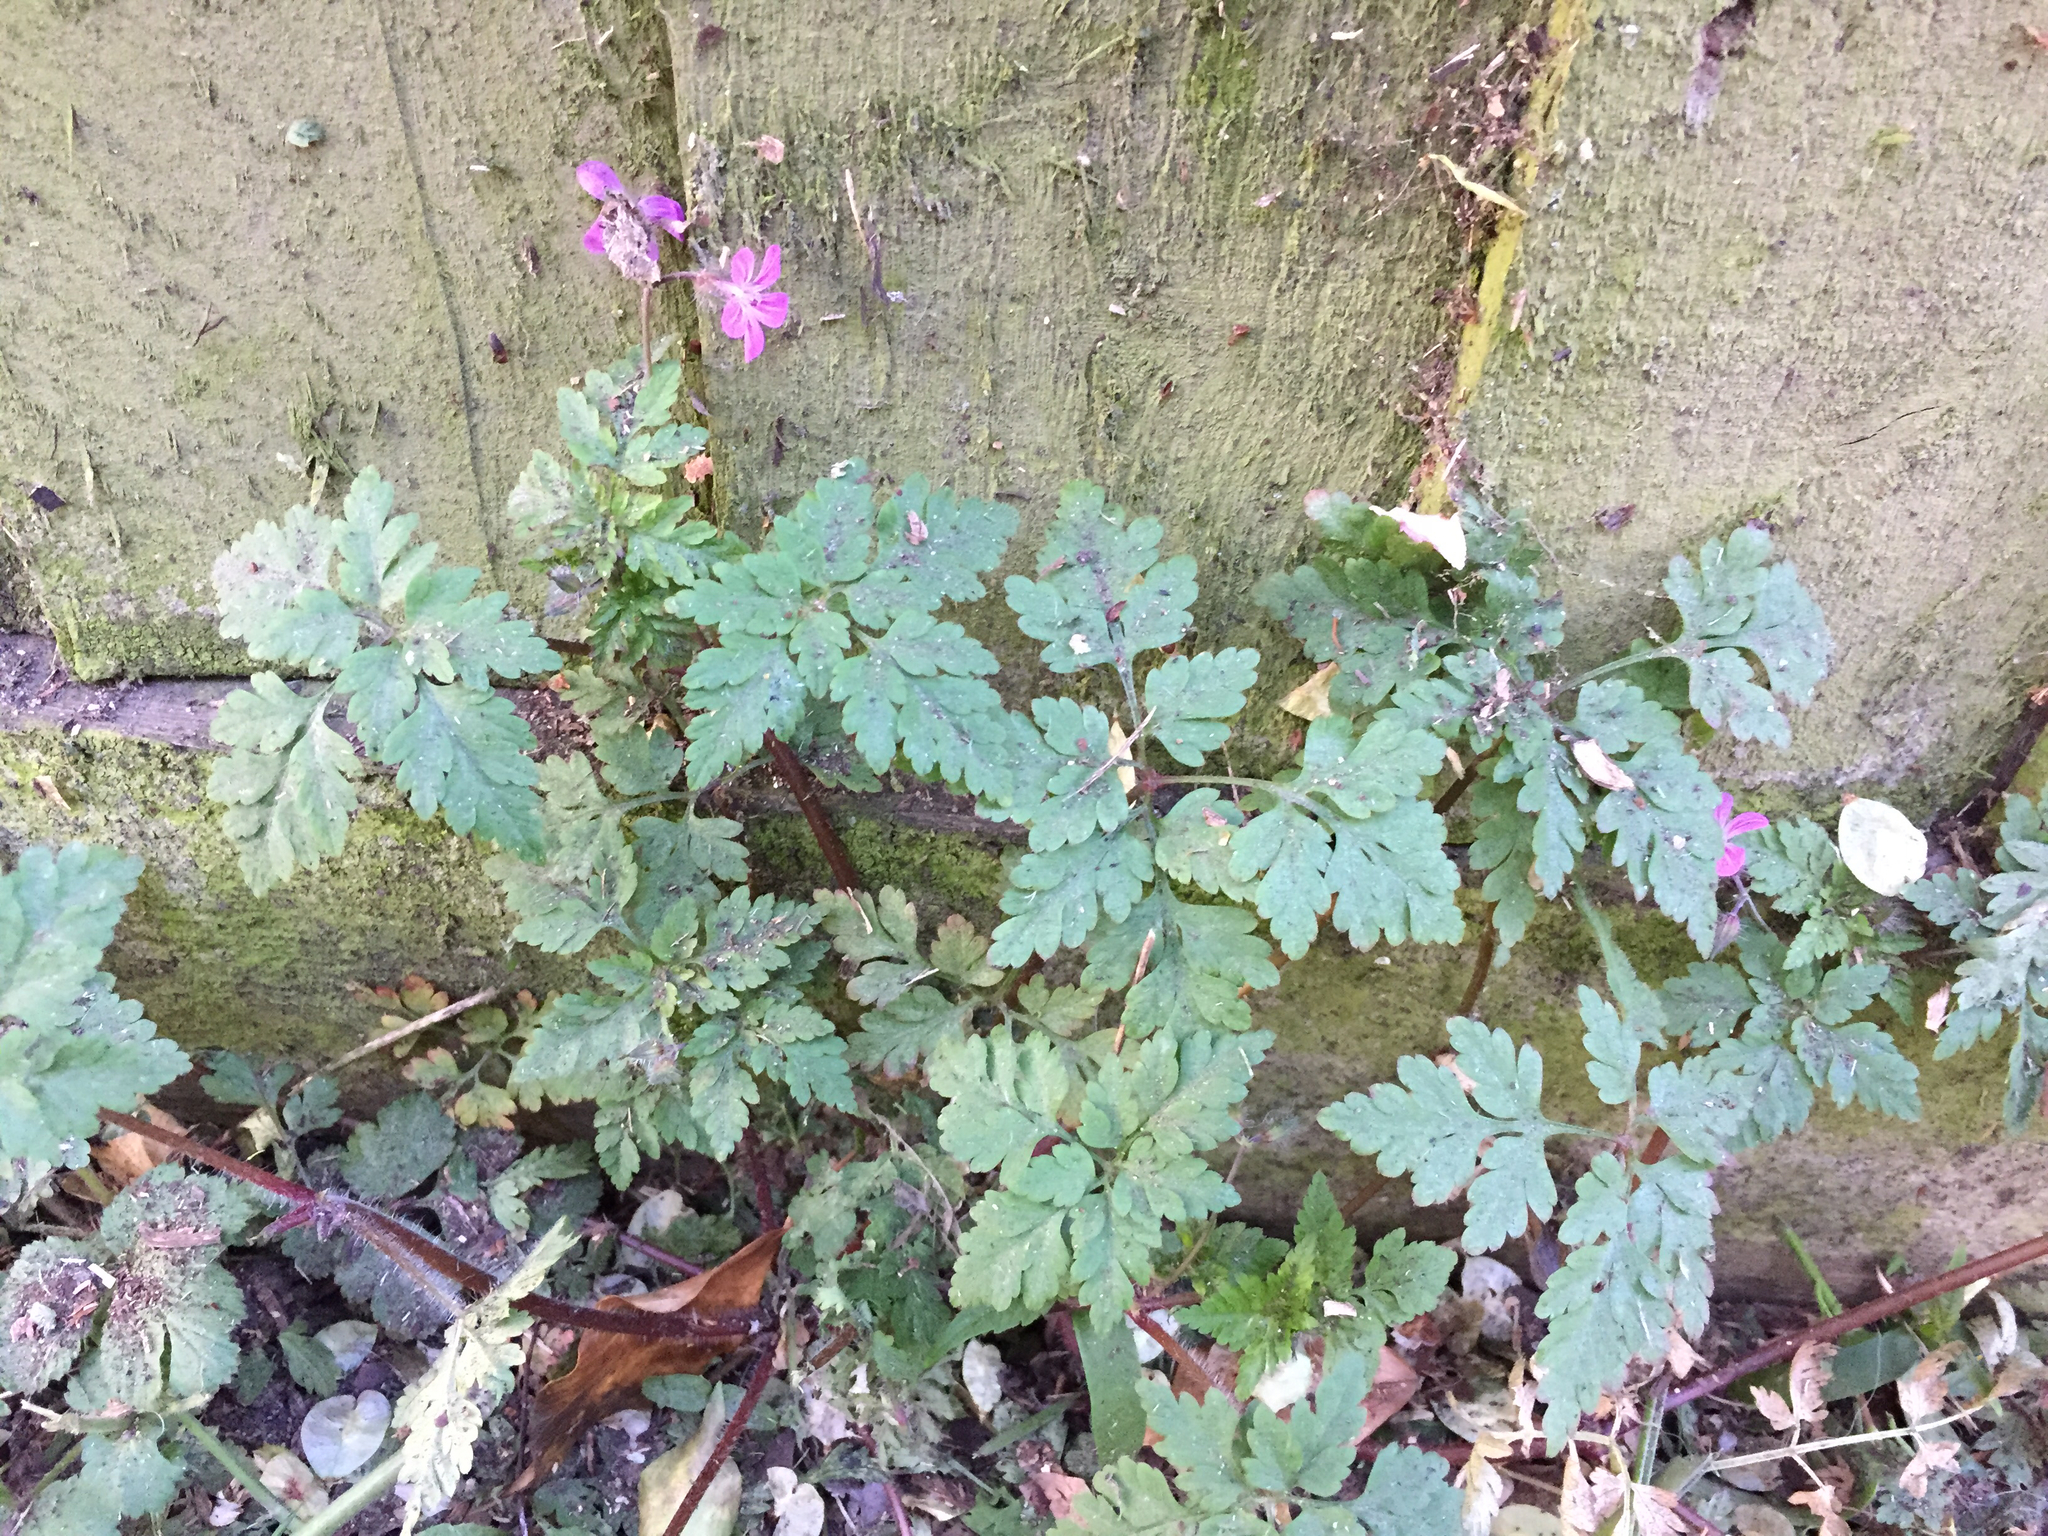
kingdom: Plantae
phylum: Tracheophyta
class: Magnoliopsida
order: Geraniales
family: Geraniaceae
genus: Geranium
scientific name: Geranium robertianum
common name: Herb-robert
